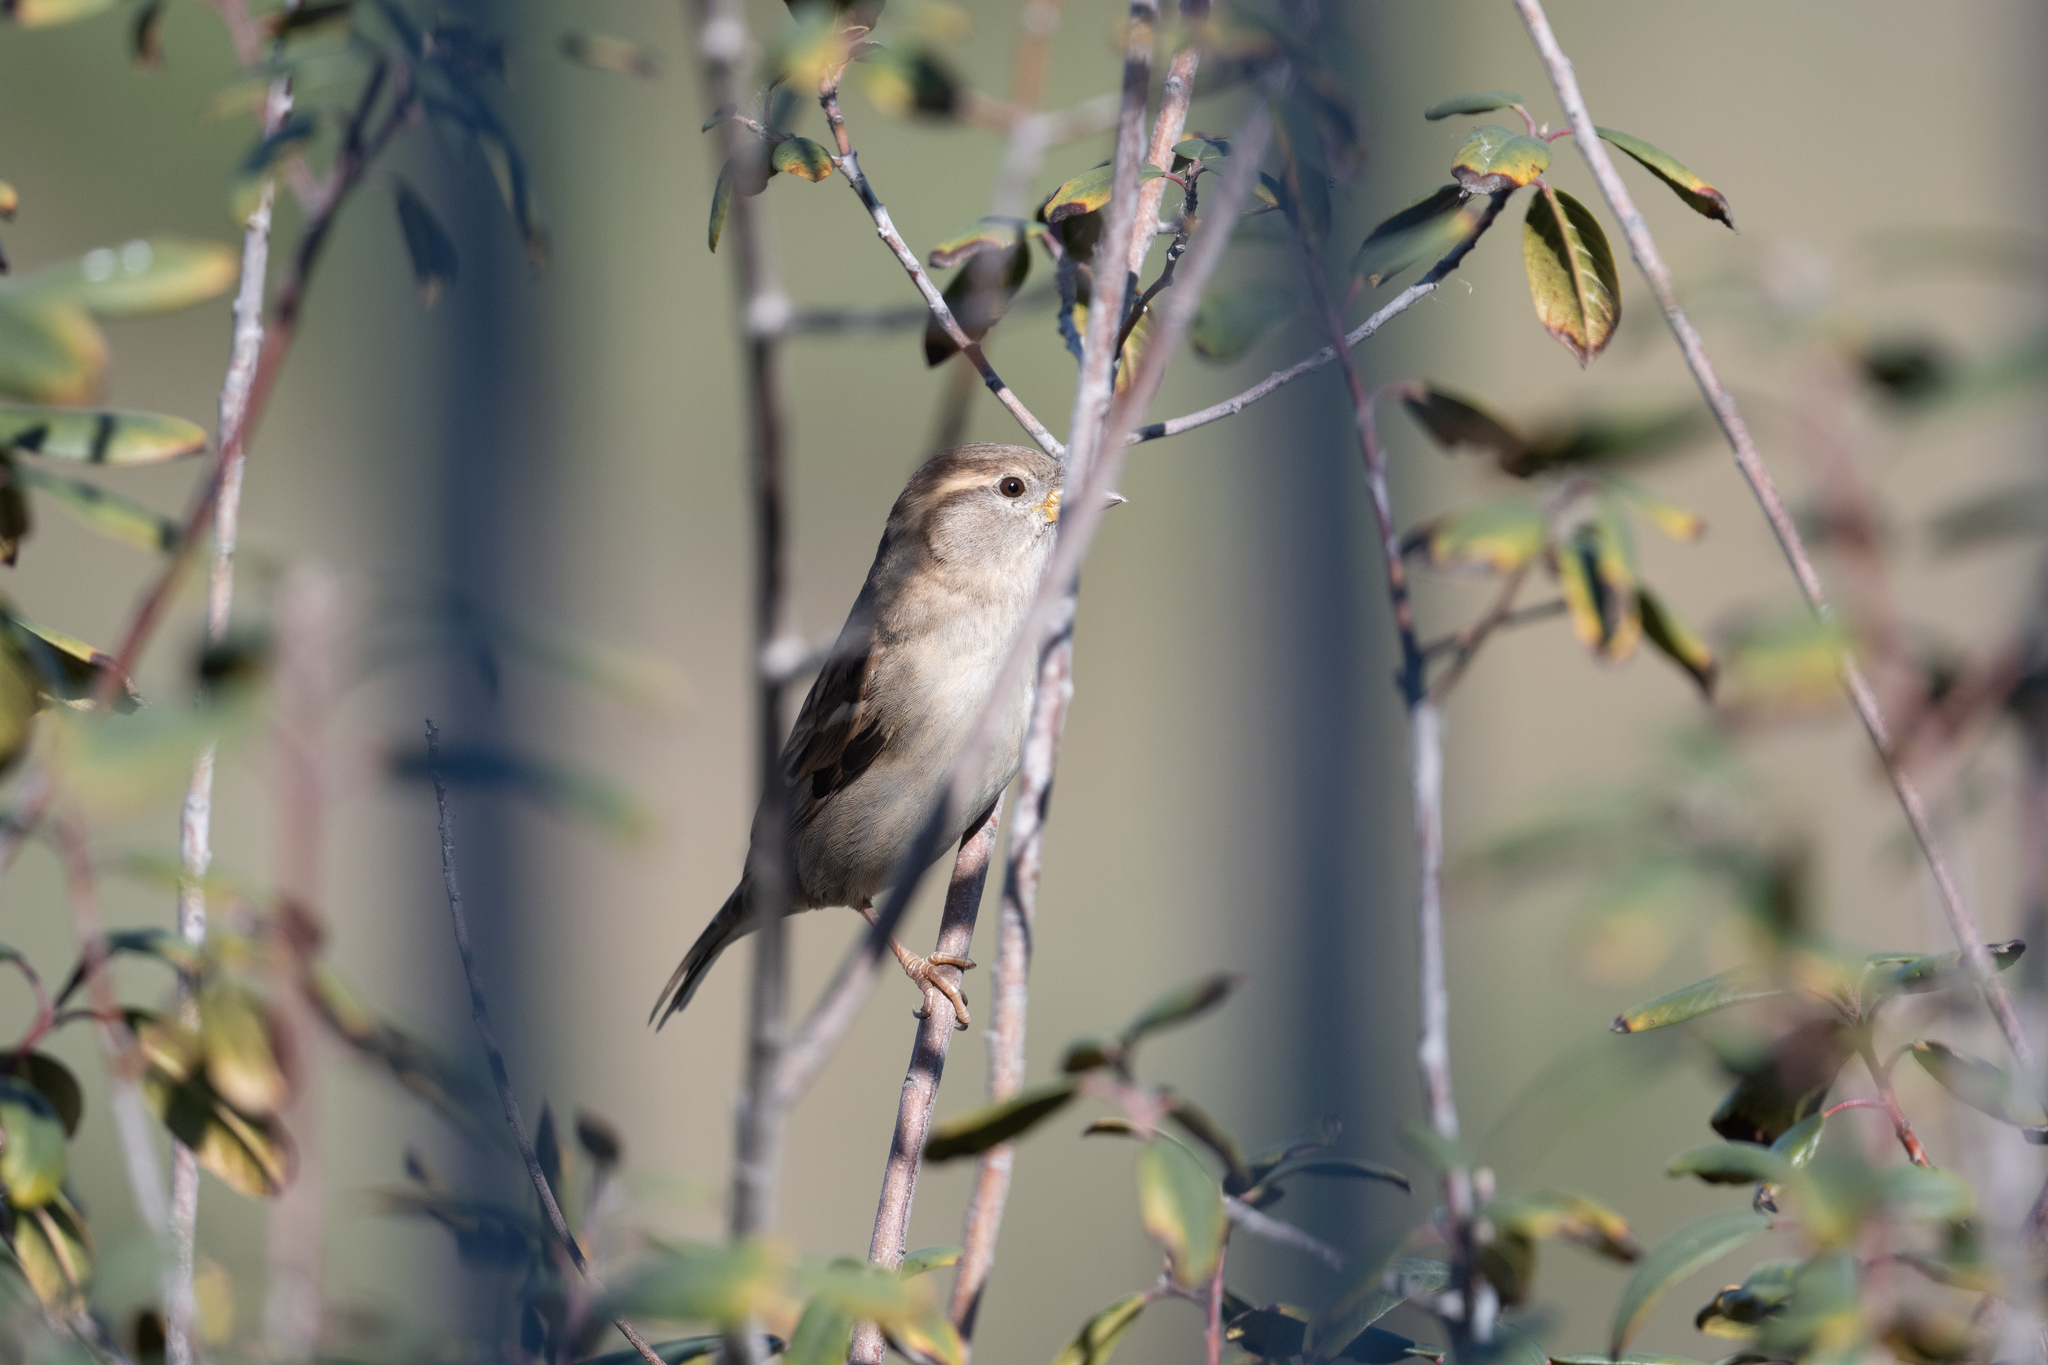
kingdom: Animalia
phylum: Chordata
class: Aves
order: Passeriformes
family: Passeridae
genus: Passer
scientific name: Passer domesticus
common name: House sparrow
